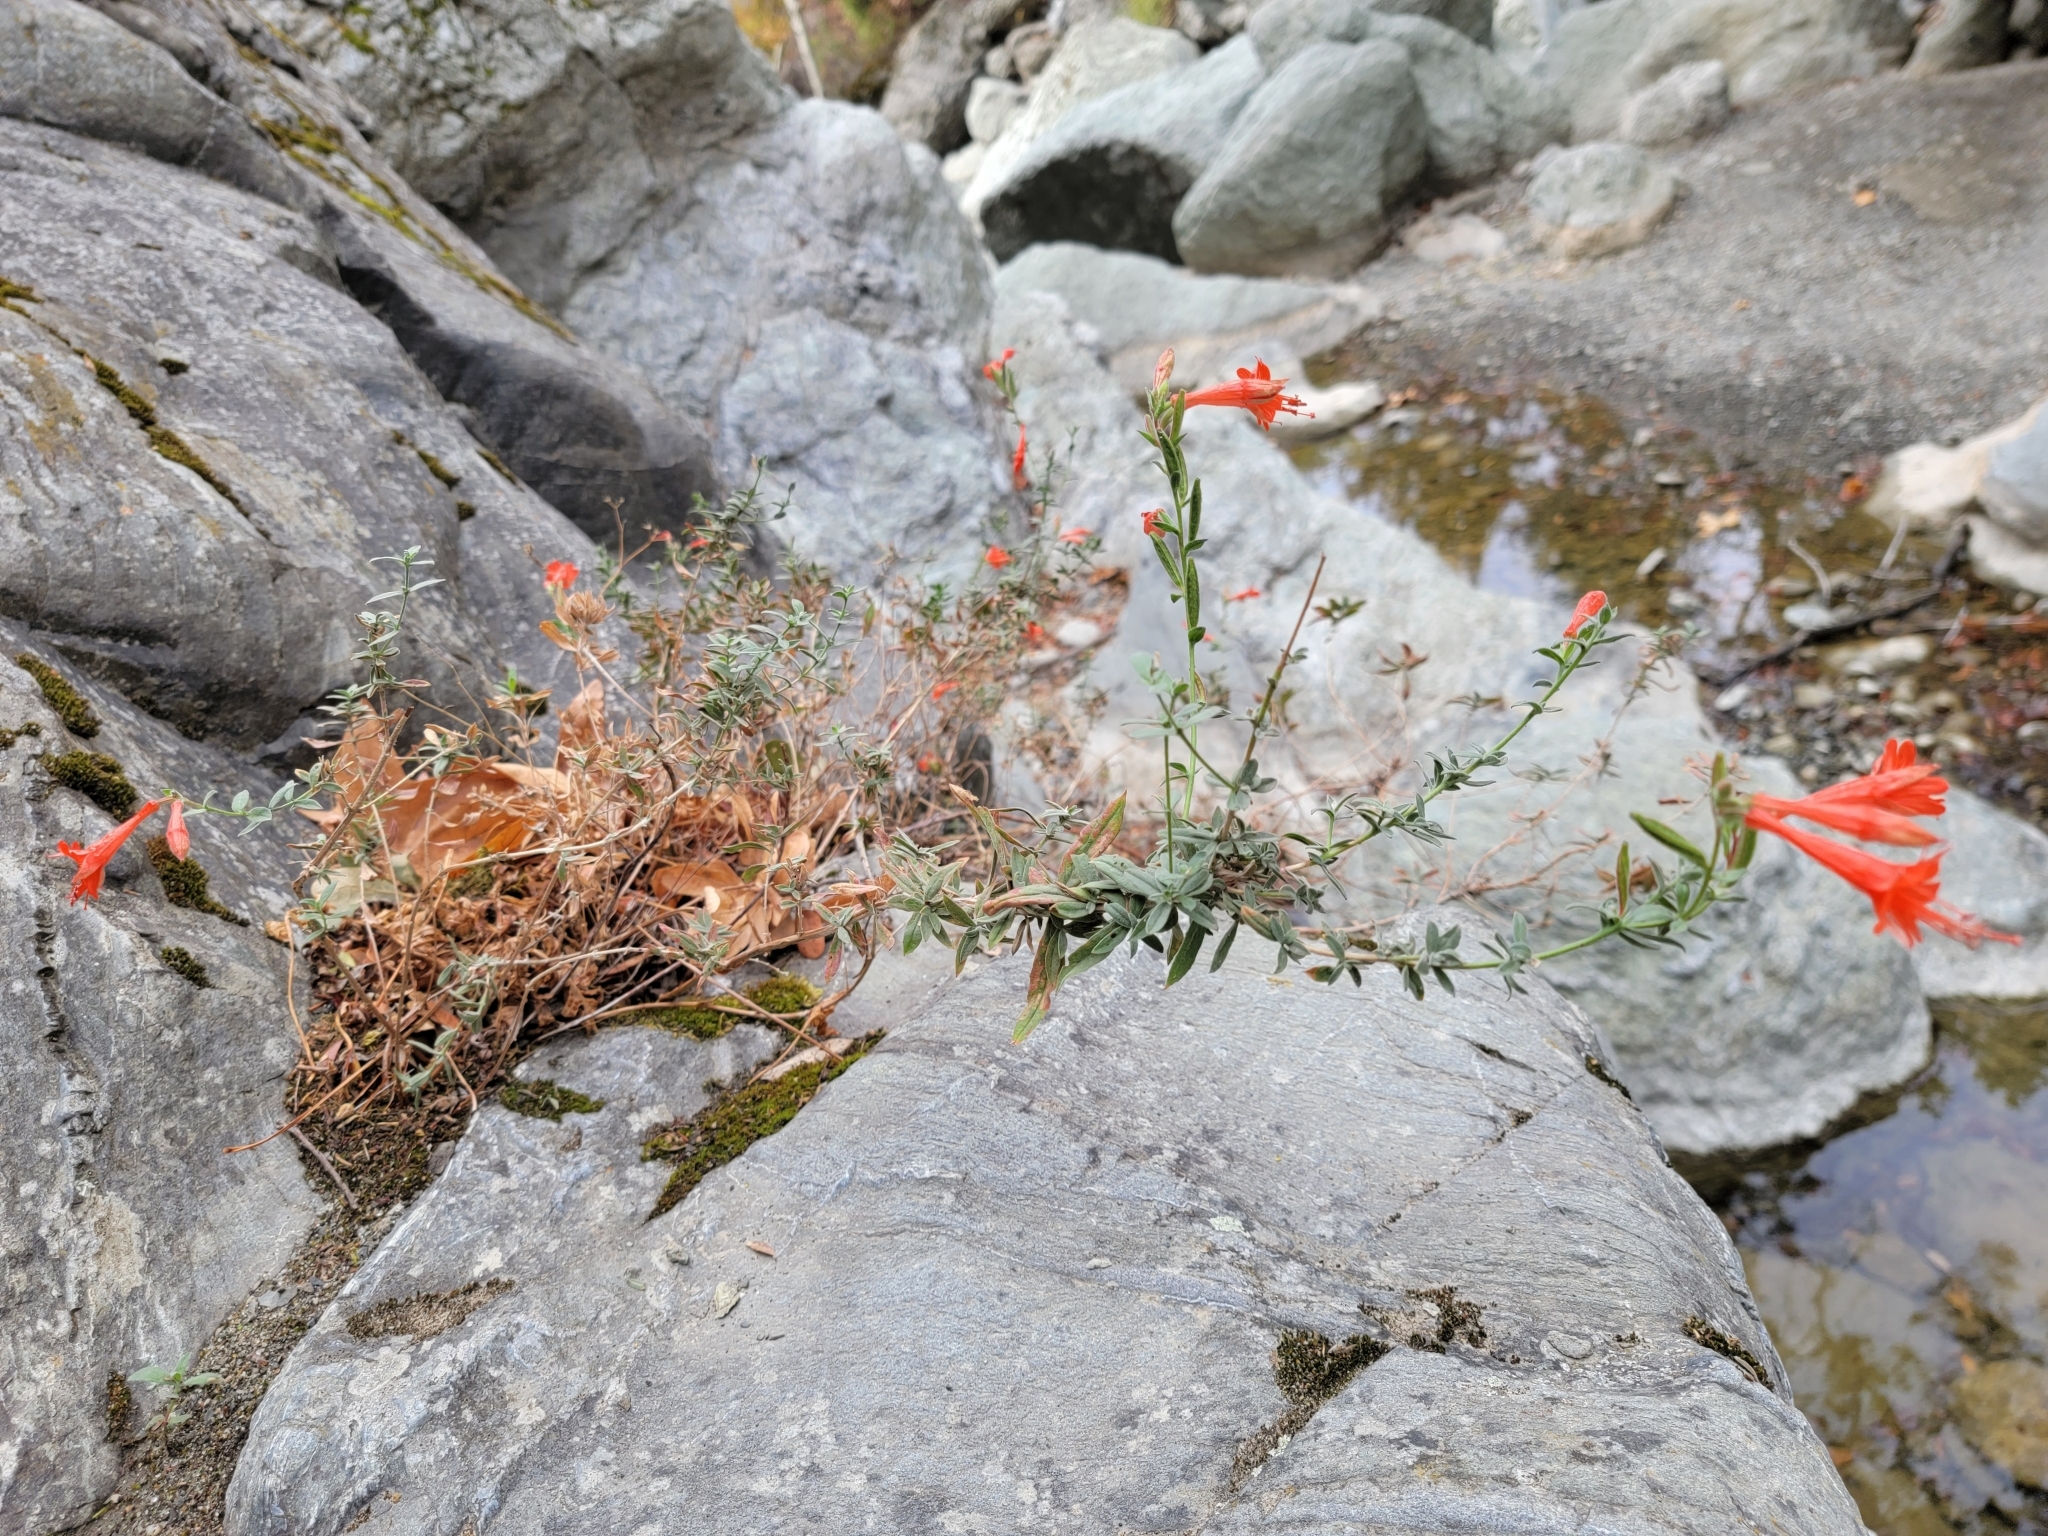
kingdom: Plantae
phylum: Tracheophyta
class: Magnoliopsida
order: Myrtales
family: Onagraceae
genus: Epilobium
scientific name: Epilobium canum
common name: California-fuchsia
